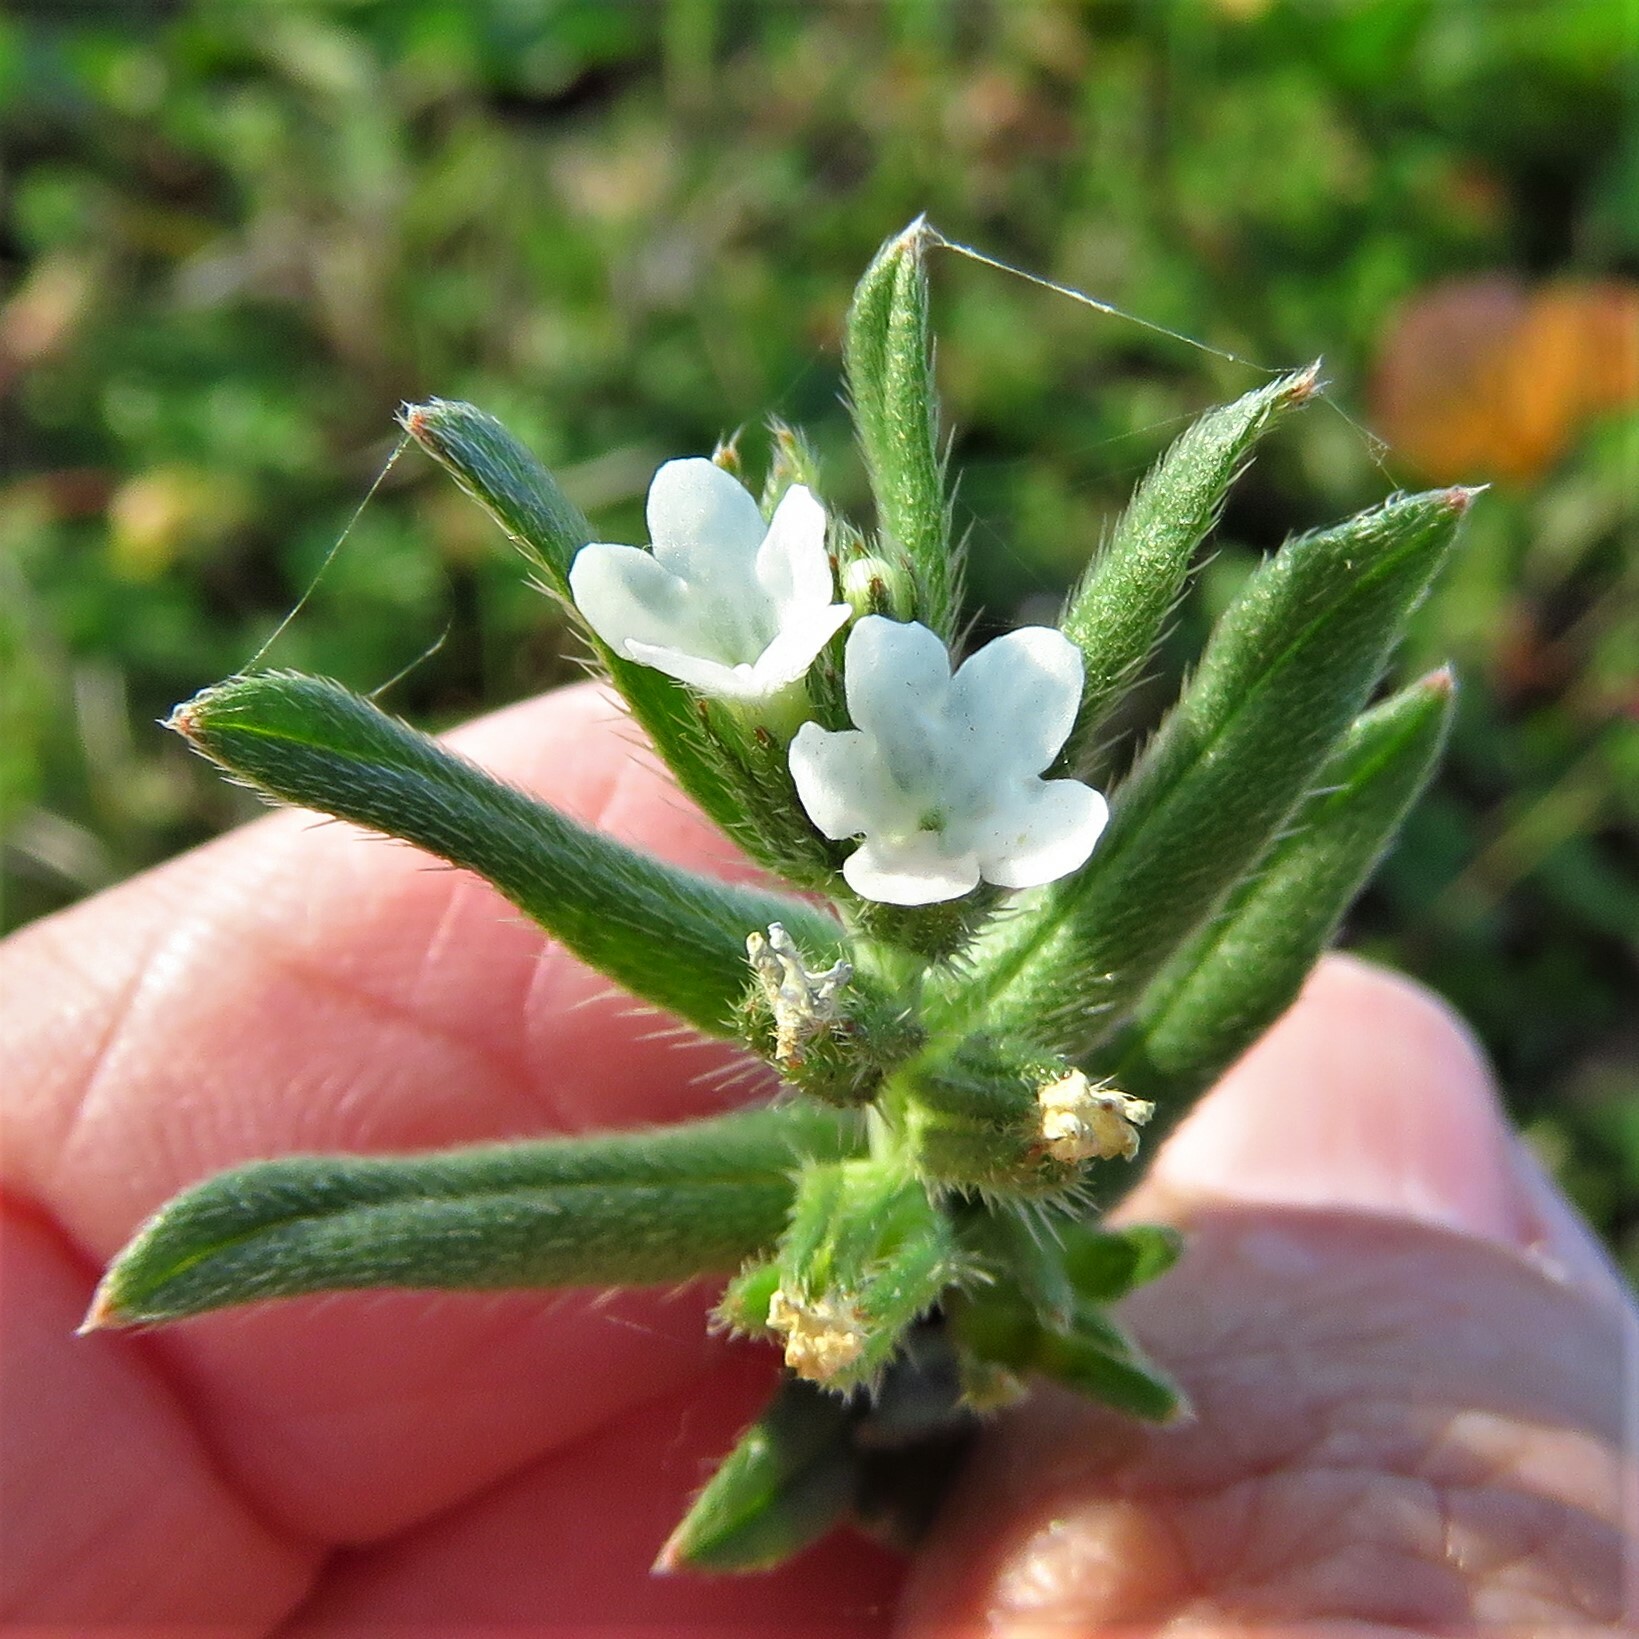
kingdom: Plantae
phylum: Tracheophyta
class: Magnoliopsida
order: Boraginales
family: Boraginaceae
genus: Buglossoides
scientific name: Buglossoides arvensis
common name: Corn gromwell
